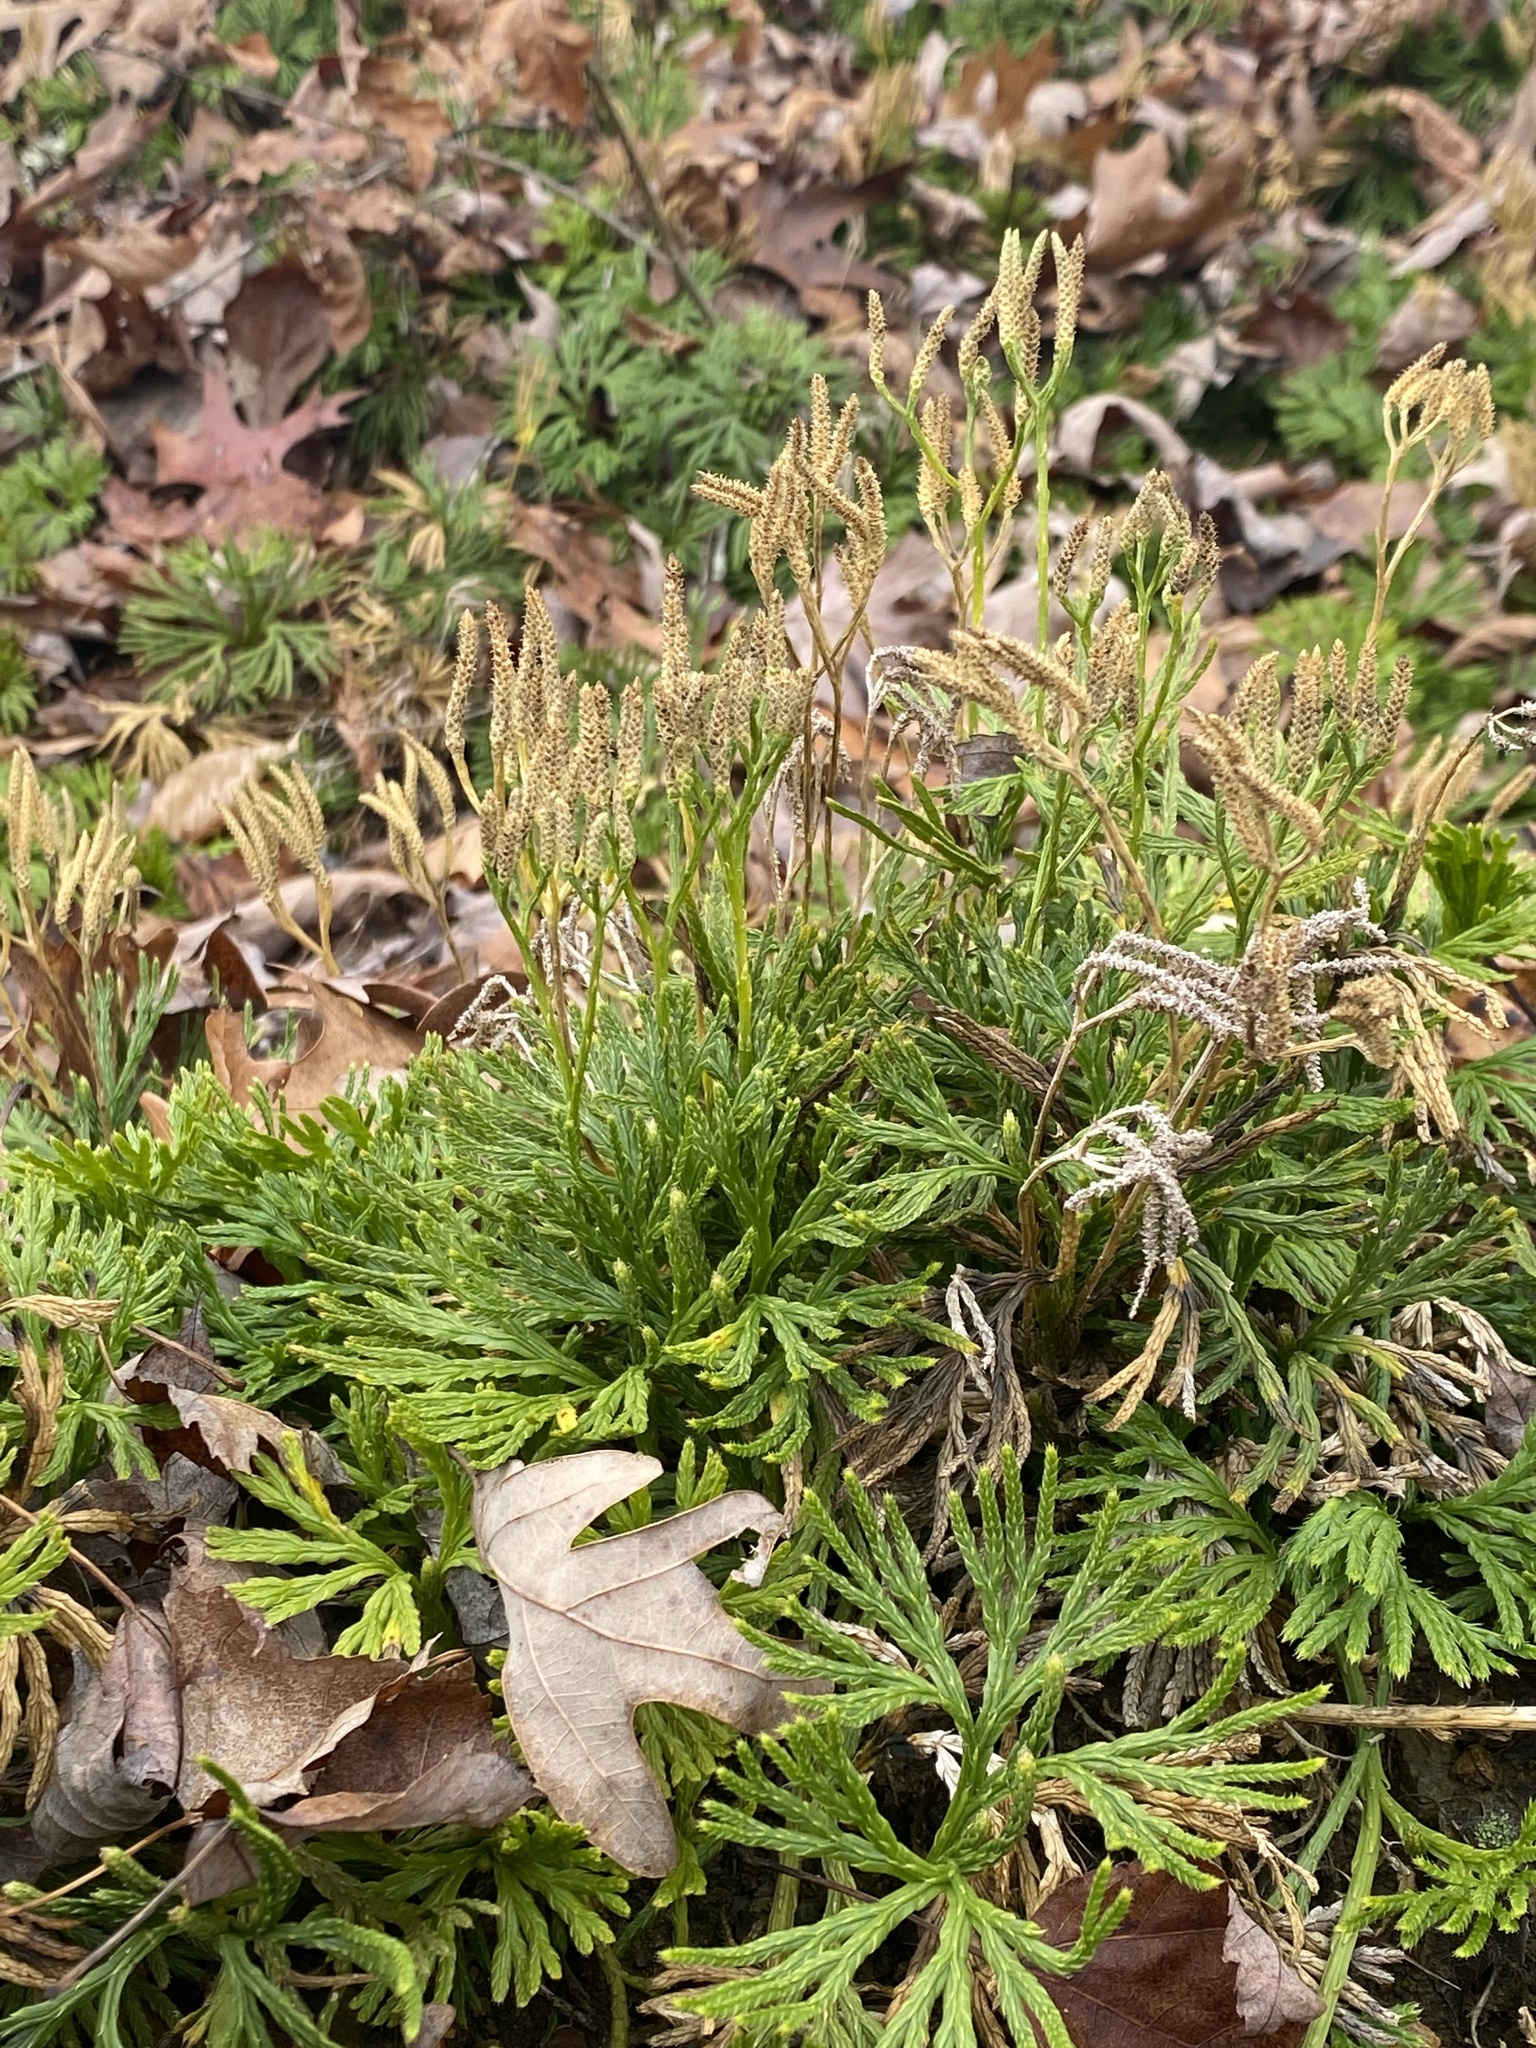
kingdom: Plantae
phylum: Tracheophyta
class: Lycopodiopsida
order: Lycopodiales
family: Lycopodiaceae
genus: Diphasiastrum
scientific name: Diphasiastrum digitatum
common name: Southern running-pine
